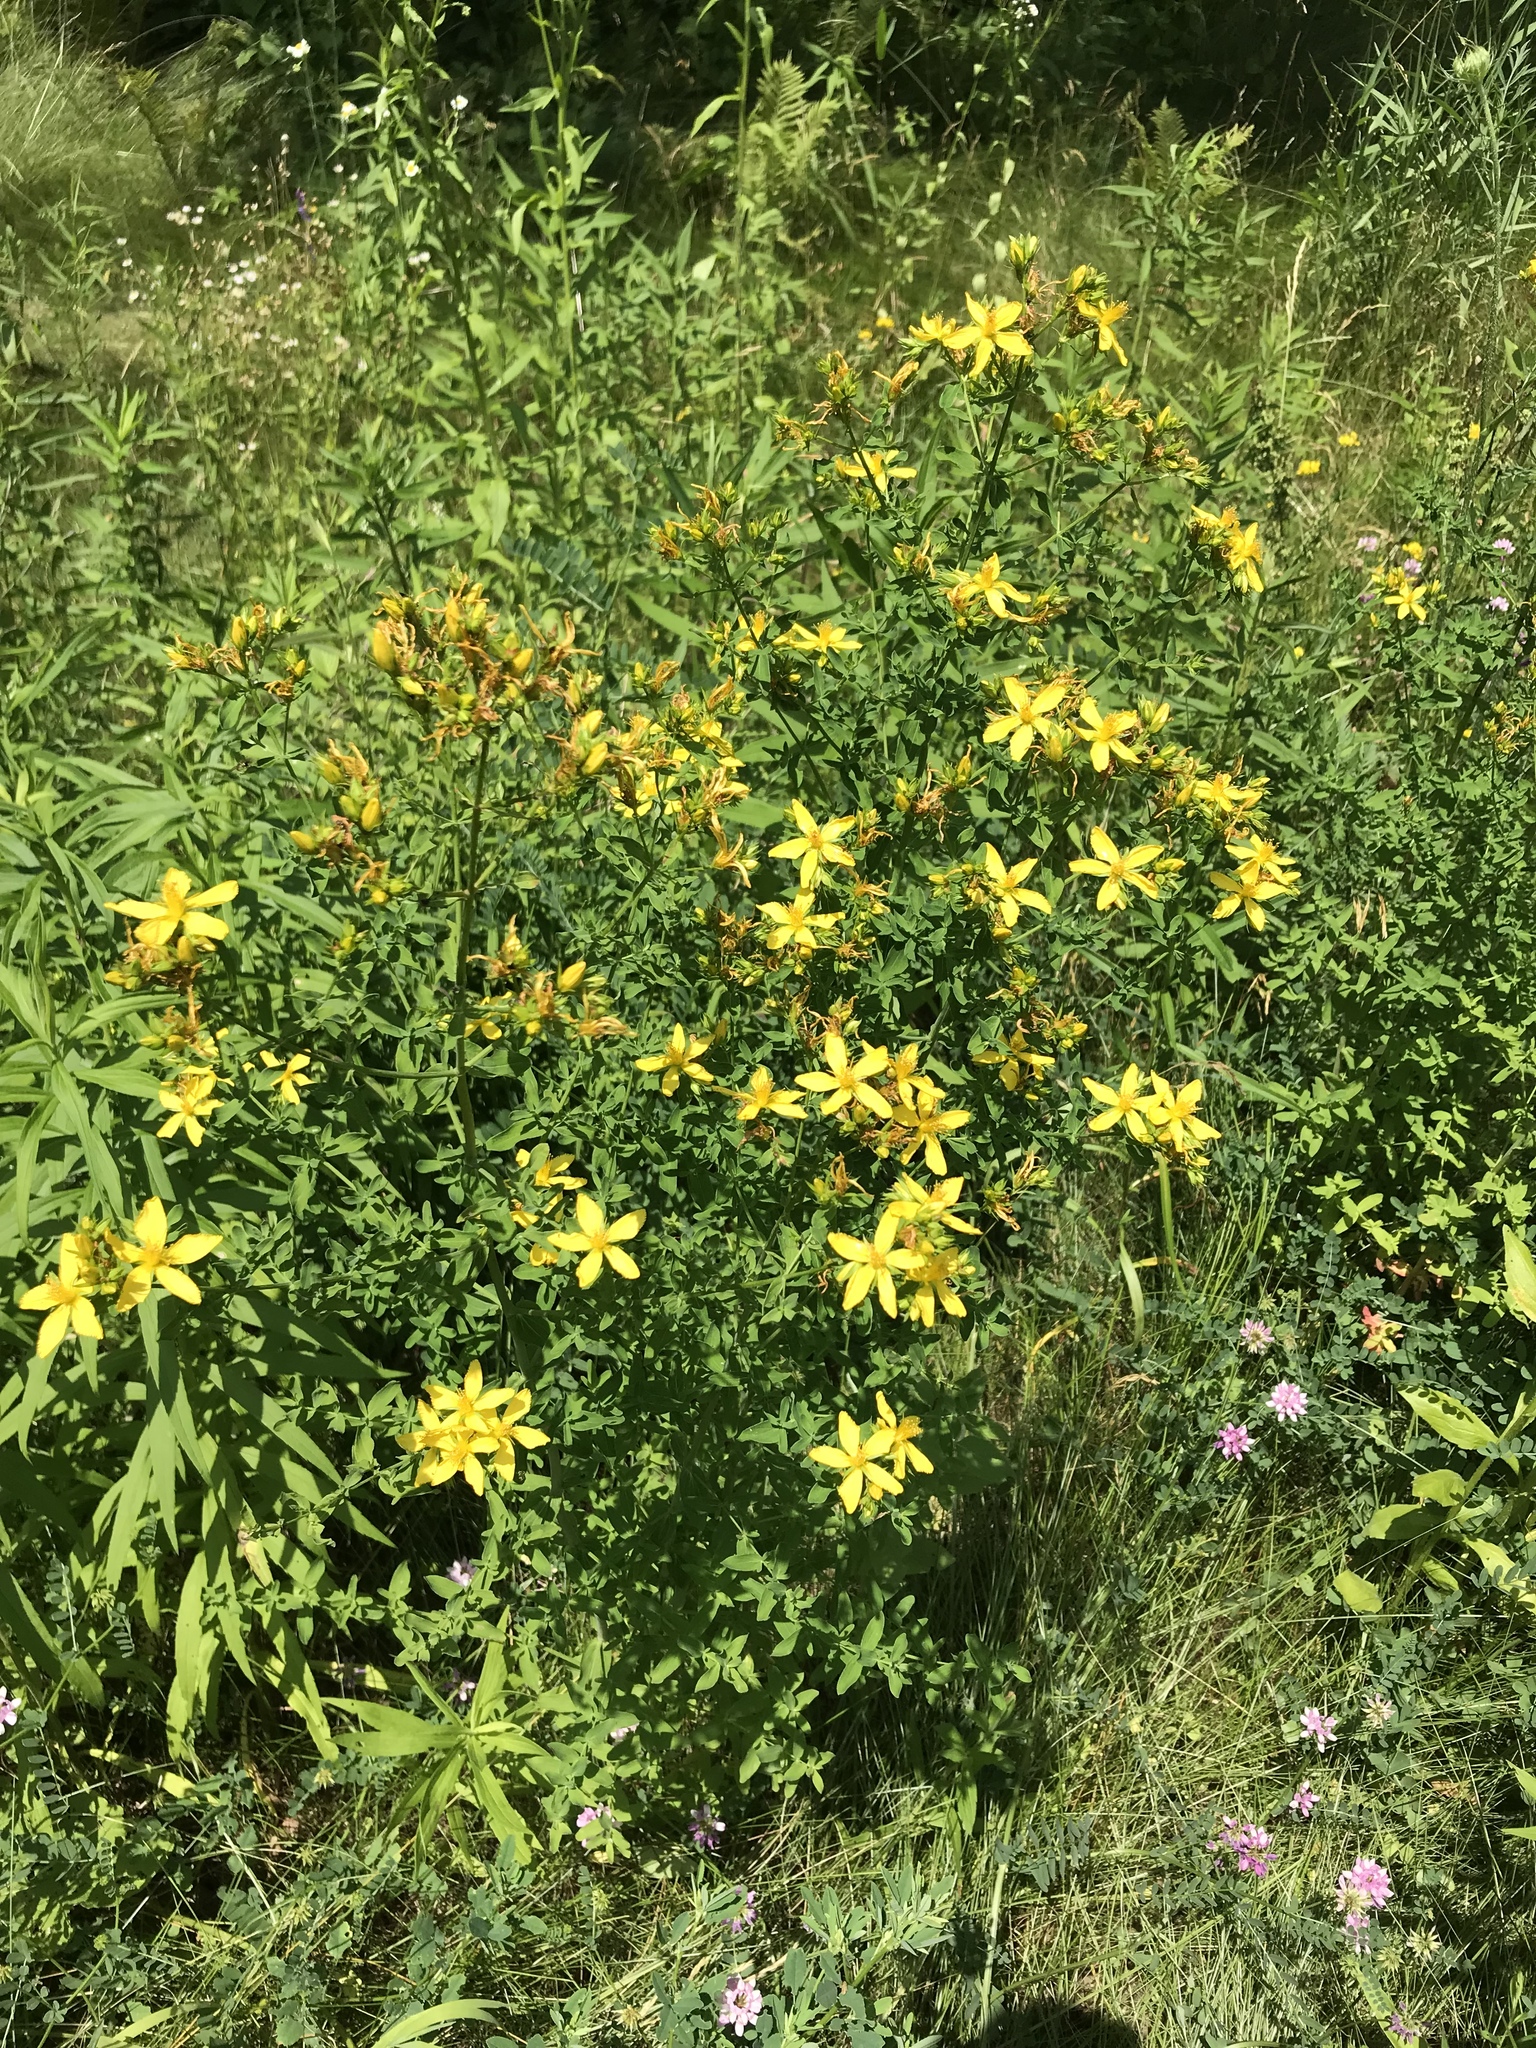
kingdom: Plantae
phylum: Tracheophyta
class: Magnoliopsida
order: Malpighiales
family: Hypericaceae
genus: Hypericum
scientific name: Hypericum perforatum
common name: Common st. johnswort
